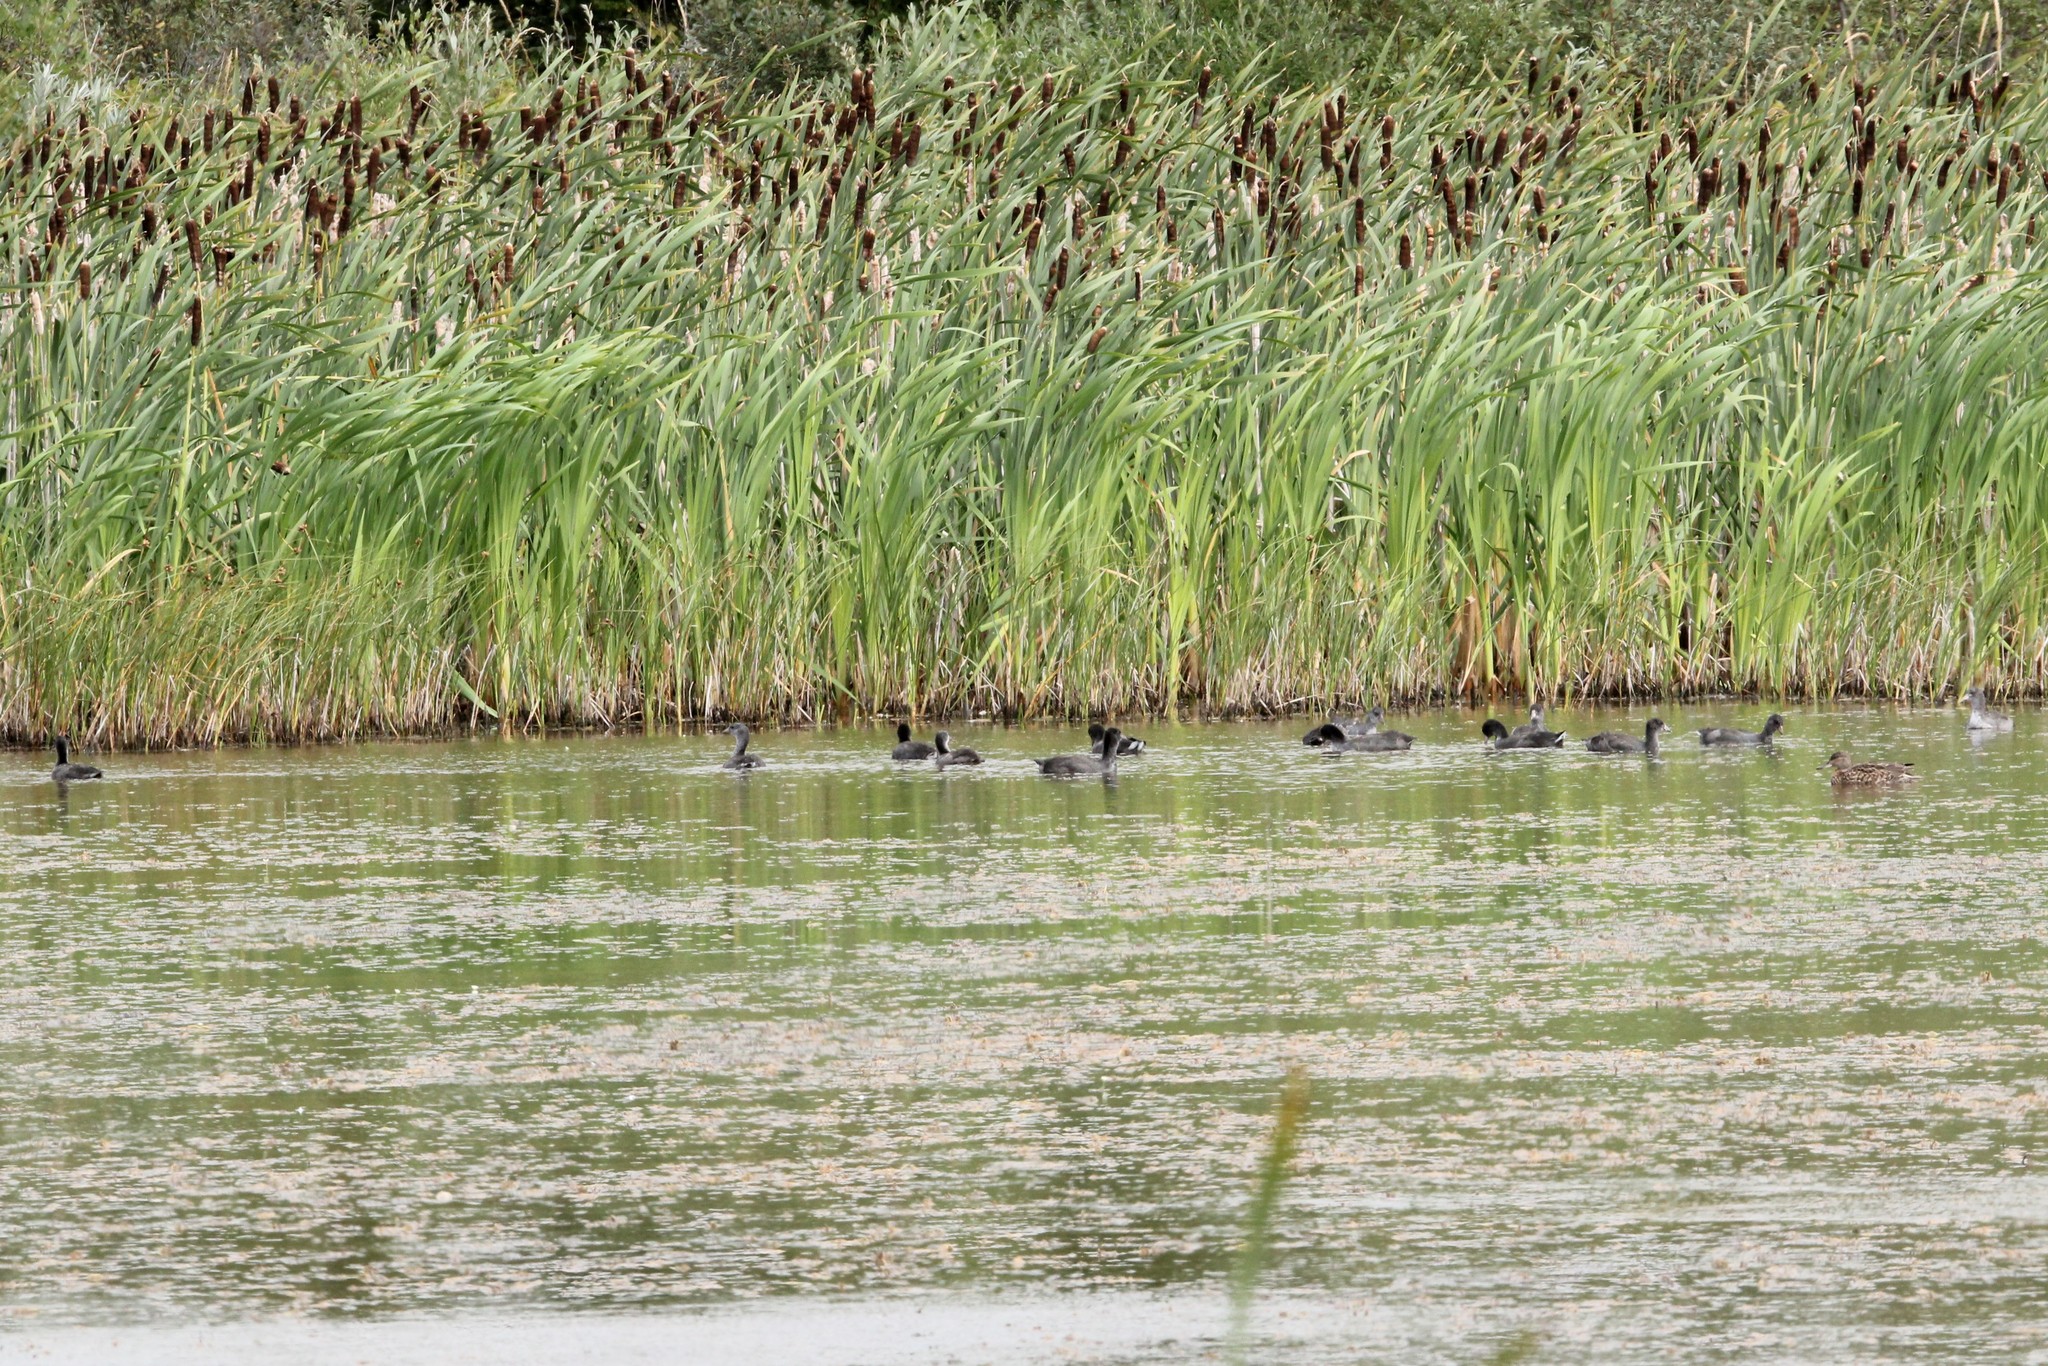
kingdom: Animalia
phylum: Chordata
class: Aves
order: Gruiformes
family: Rallidae
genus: Fulica
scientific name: Fulica americana
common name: American coot
